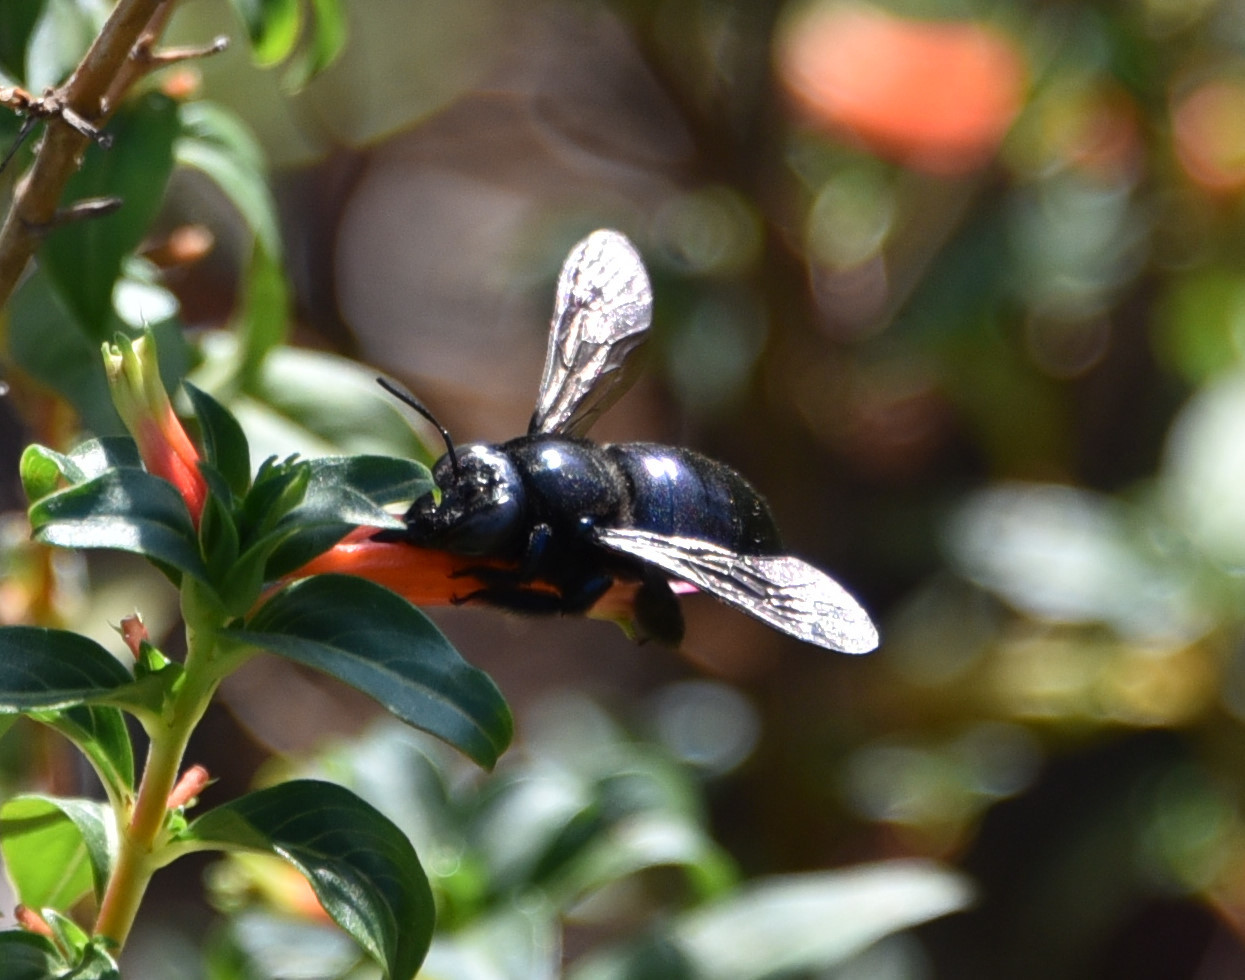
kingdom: Animalia
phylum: Arthropoda
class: Insecta
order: Hymenoptera
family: Apidae
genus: Xylocopa
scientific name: Xylocopa micans
